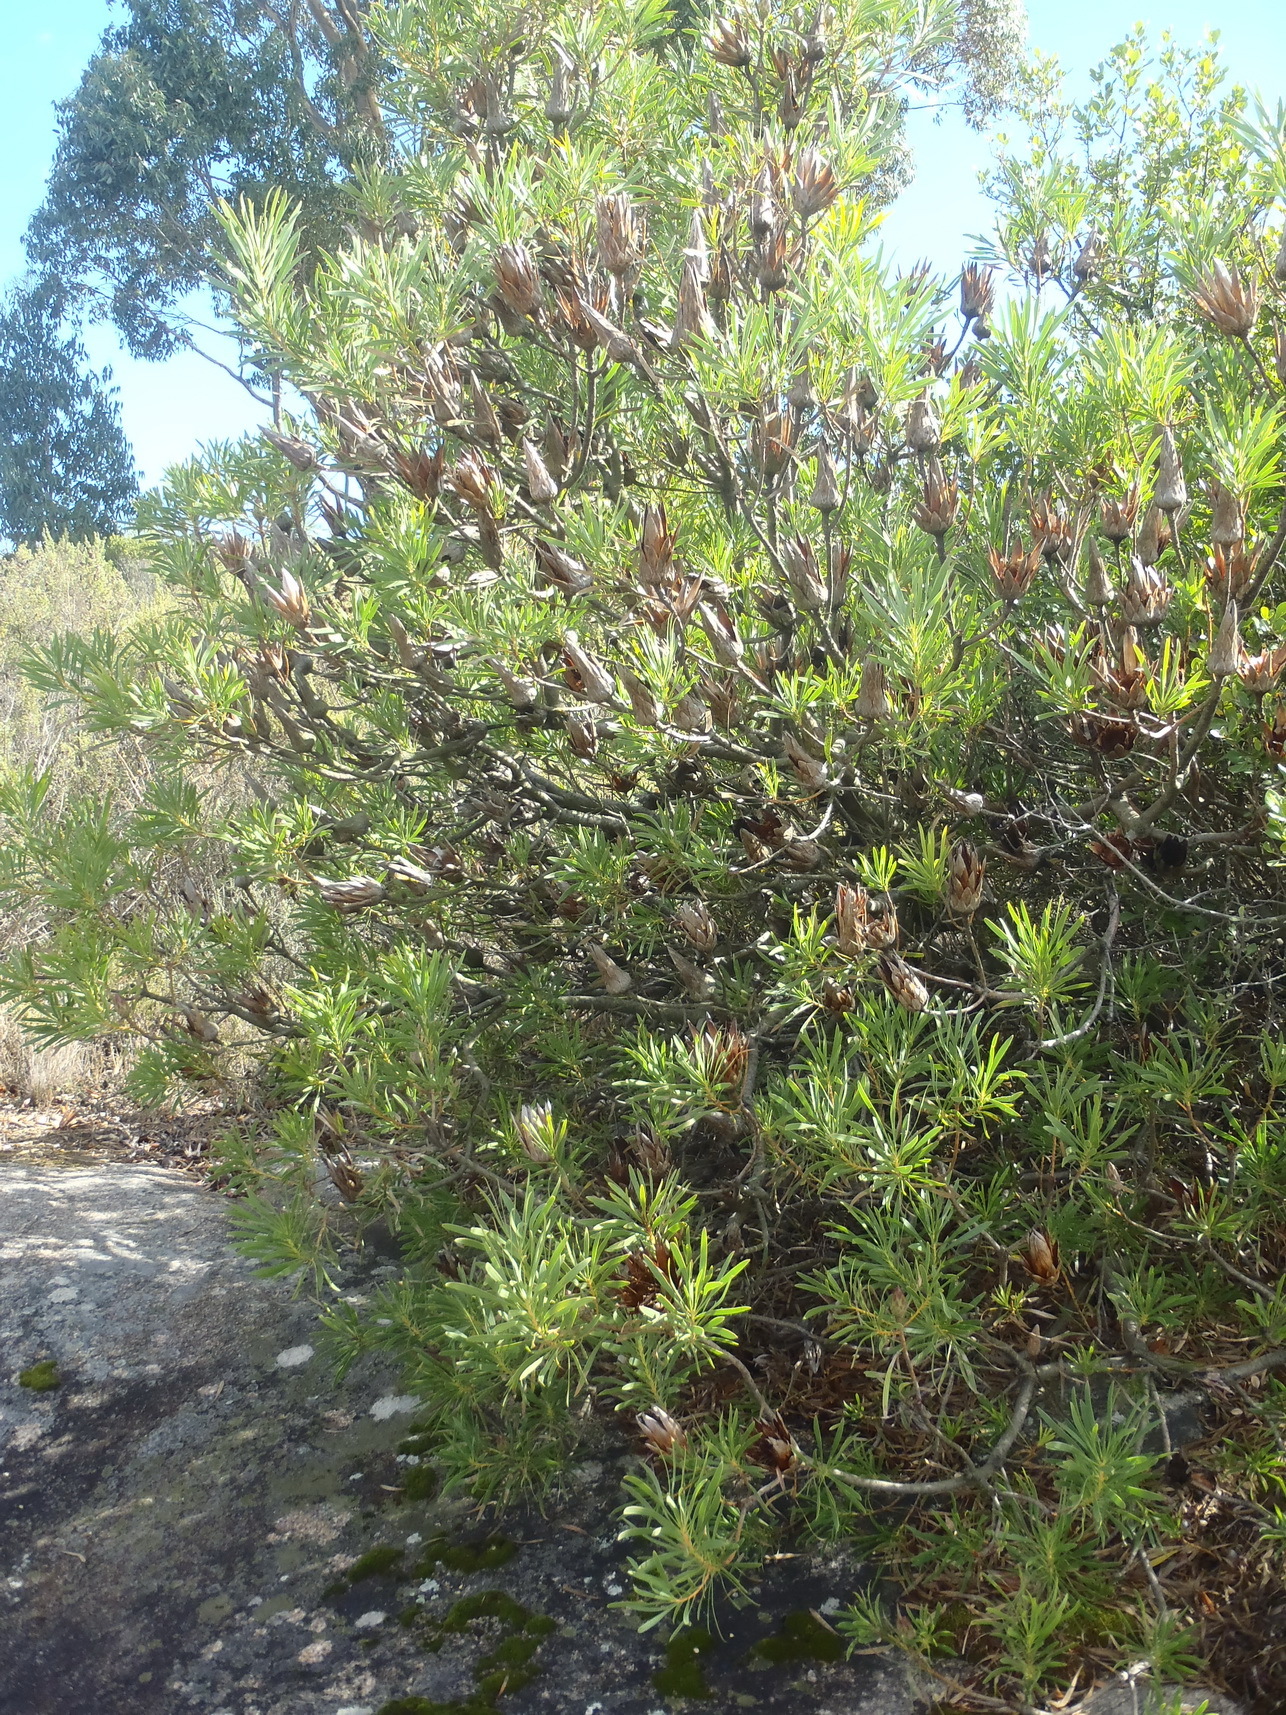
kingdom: Plantae
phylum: Tracheophyta
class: Magnoliopsida
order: Proteales
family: Proteaceae
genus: Protea
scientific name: Protea repens
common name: Sugarbush
